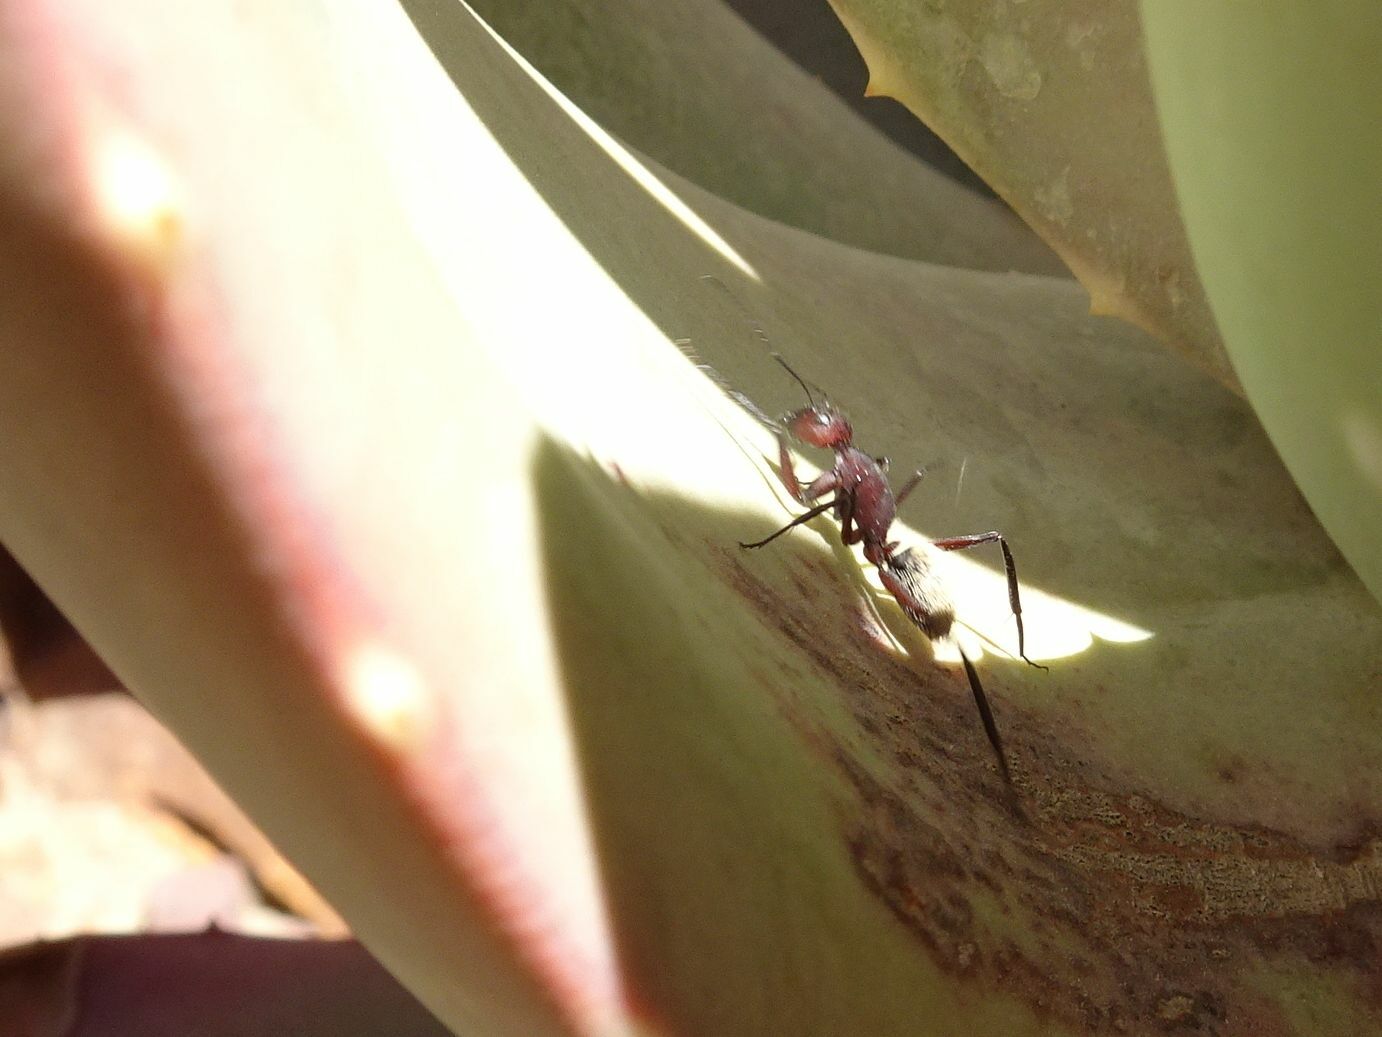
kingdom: Animalia
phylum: Arthropoda
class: Insecta
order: Hymenoptera
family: Formicidae
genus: Camponotus
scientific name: Camponotus storeatus
